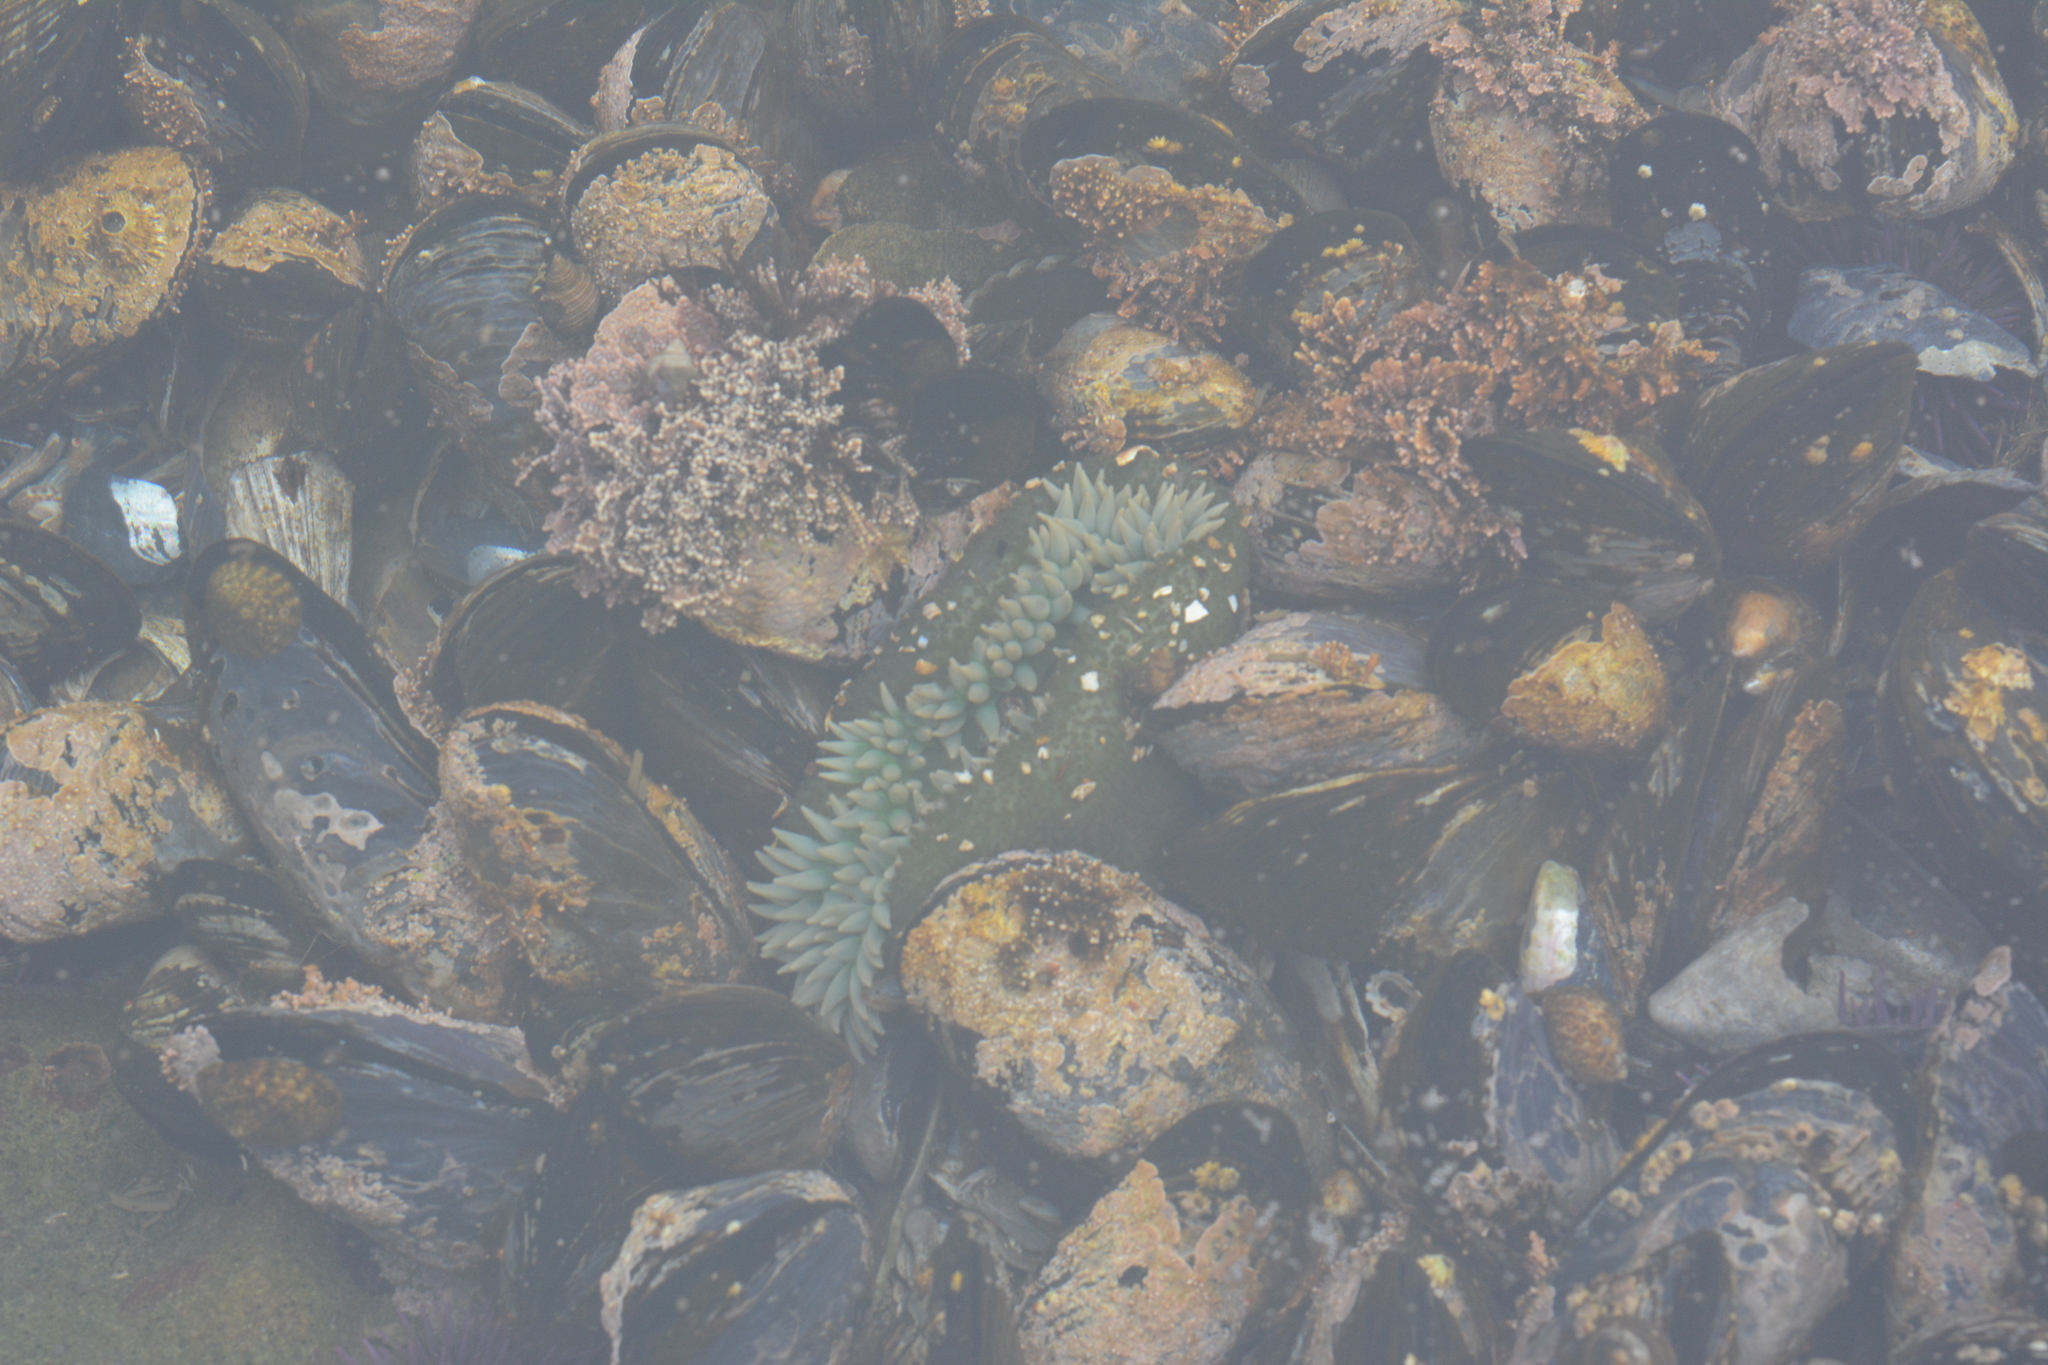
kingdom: Animalia
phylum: Cnidaria
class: Anthozoa
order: Actiniaria
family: Actiniidae
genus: Anthopleura
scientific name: Anthopleura xanthogrammica
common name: Giant green anemone
